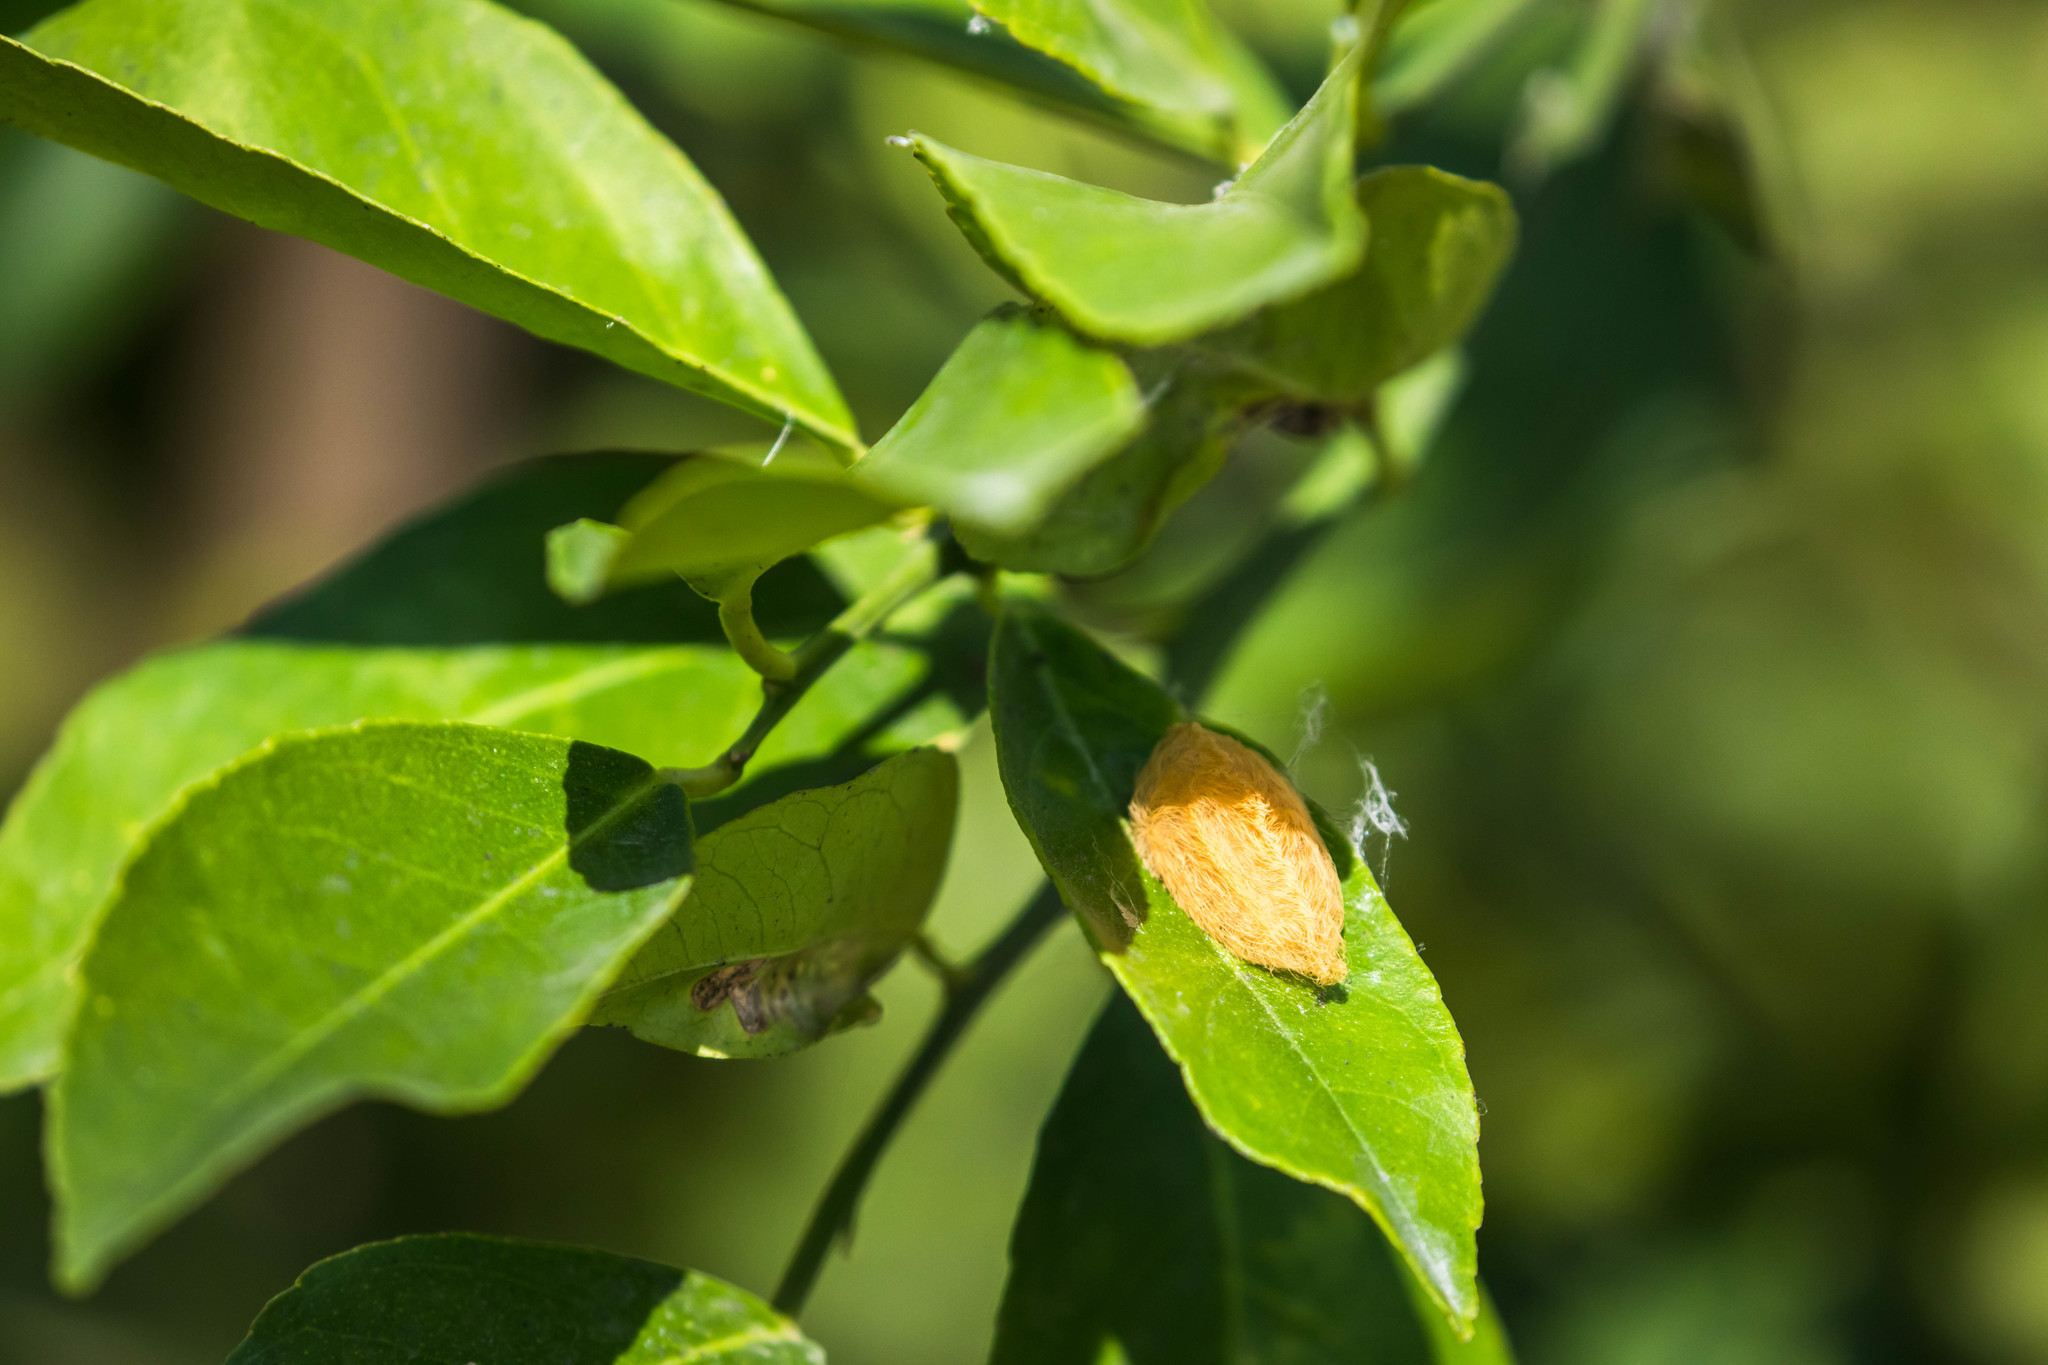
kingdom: Animalia
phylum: Arthropoda
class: Insecta
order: Lepidoptera
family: Megalopygidae
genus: Megalopyge
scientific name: Megalopyge opercularis
